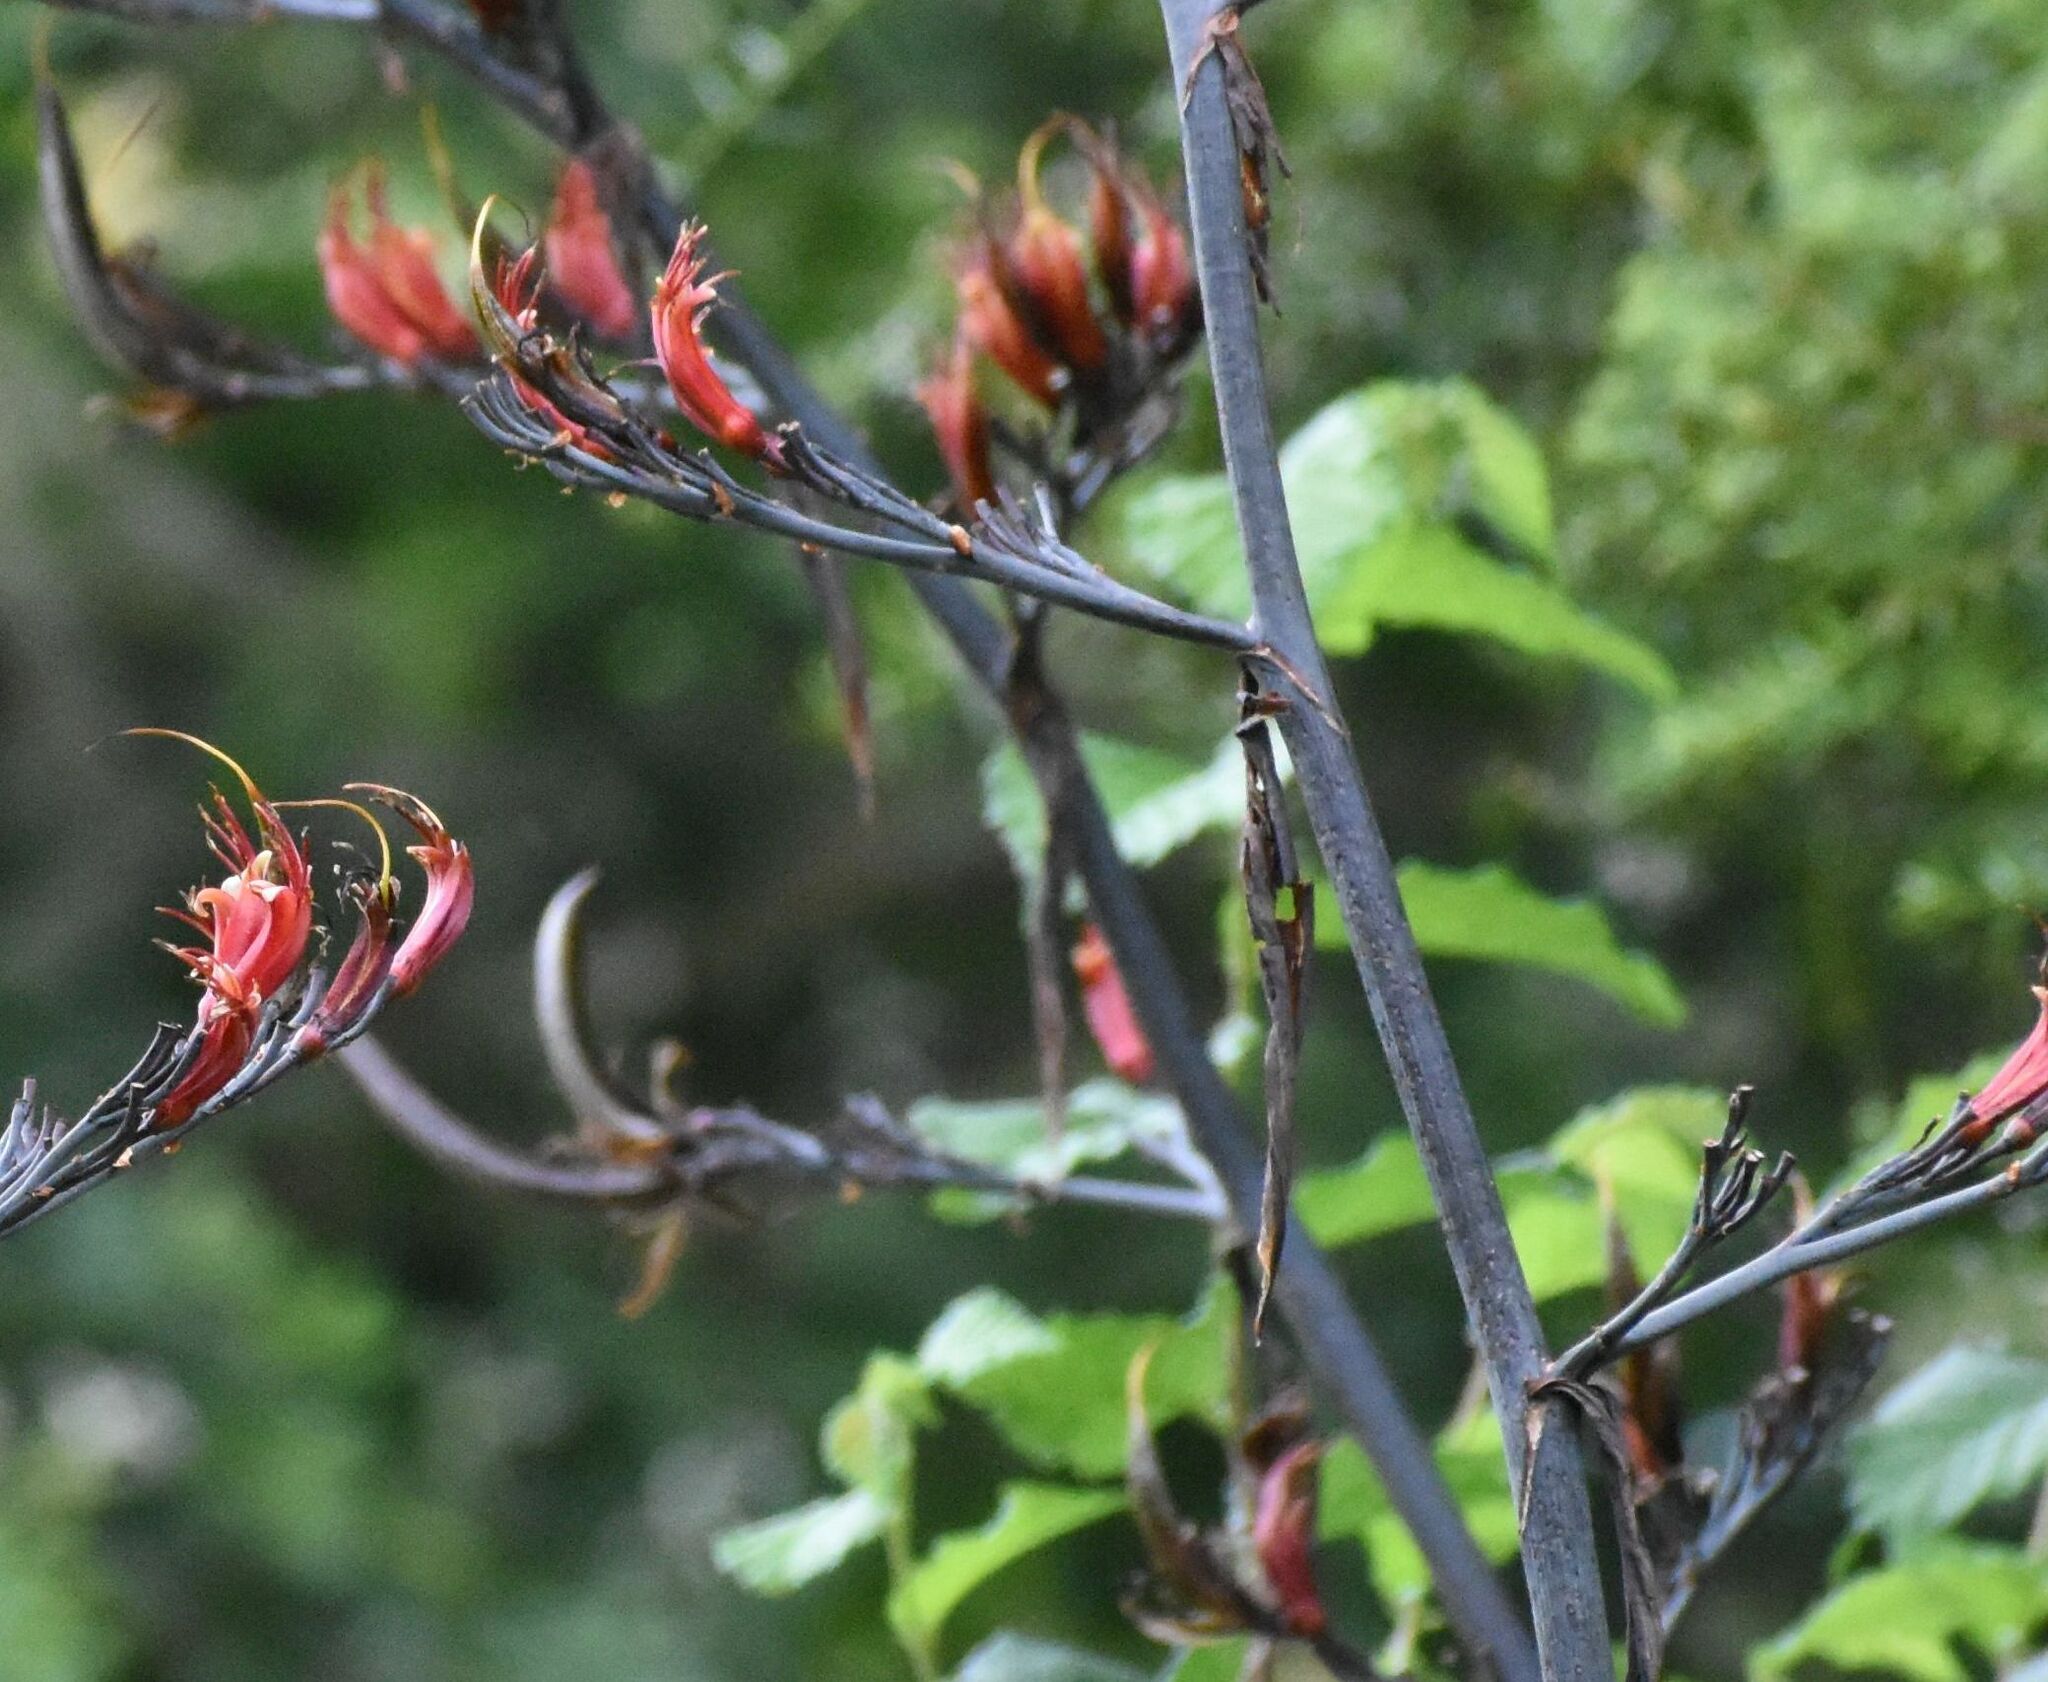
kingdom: Plantae
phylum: Tracheophyta
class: Liliopsida
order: Asparagales
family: Asphodelaceae
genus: Phormium
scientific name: Phormium tenax
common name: New zealand flax
